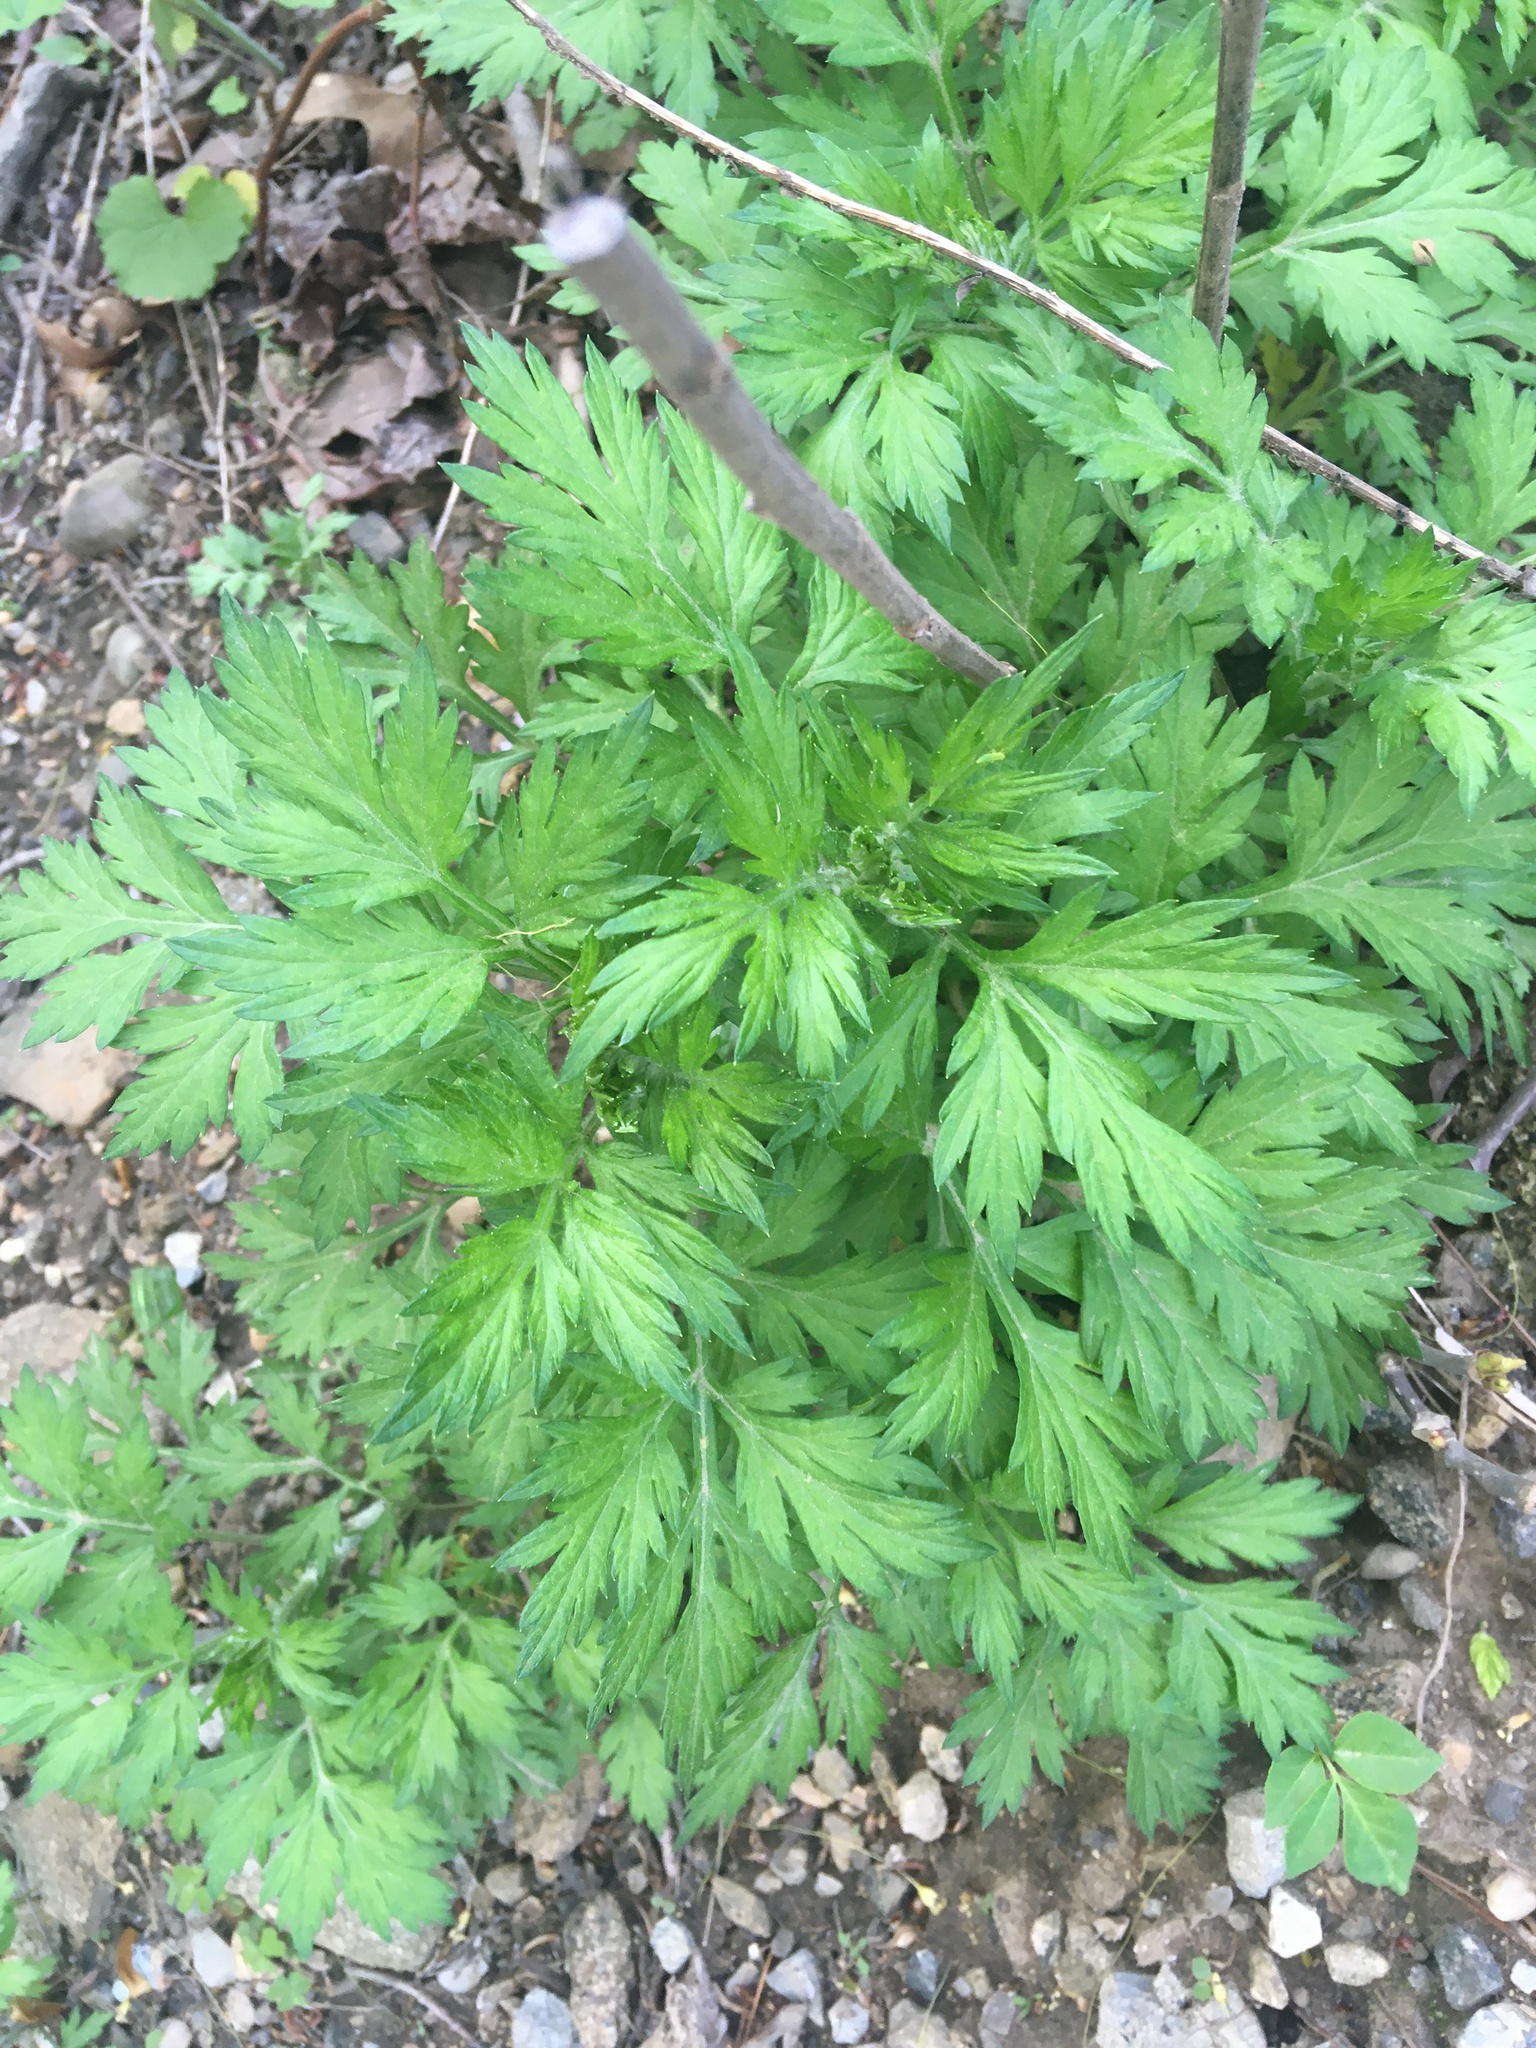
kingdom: Plantae
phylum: Tracheophyta
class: Magnoliopsida
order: Asterales
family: Asteraceae
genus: Artemisia
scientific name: Artemisia vulgaris
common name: Mugwort
